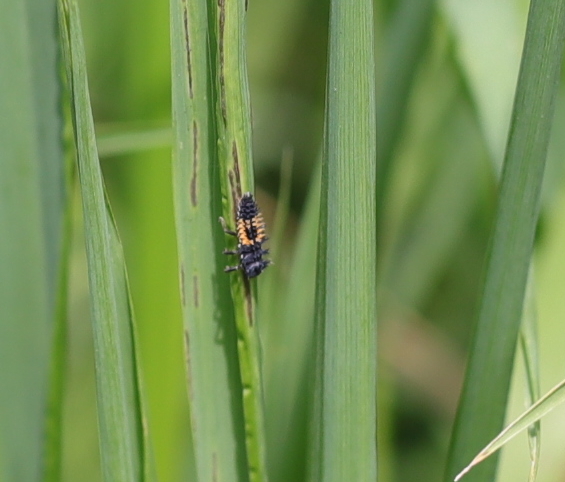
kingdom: Animalia
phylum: Arthropoda
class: Insecta
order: Coleoptera
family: Coccinellidae
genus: Harmonia
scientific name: Harmonia axyridis
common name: Harlequin ladybird
